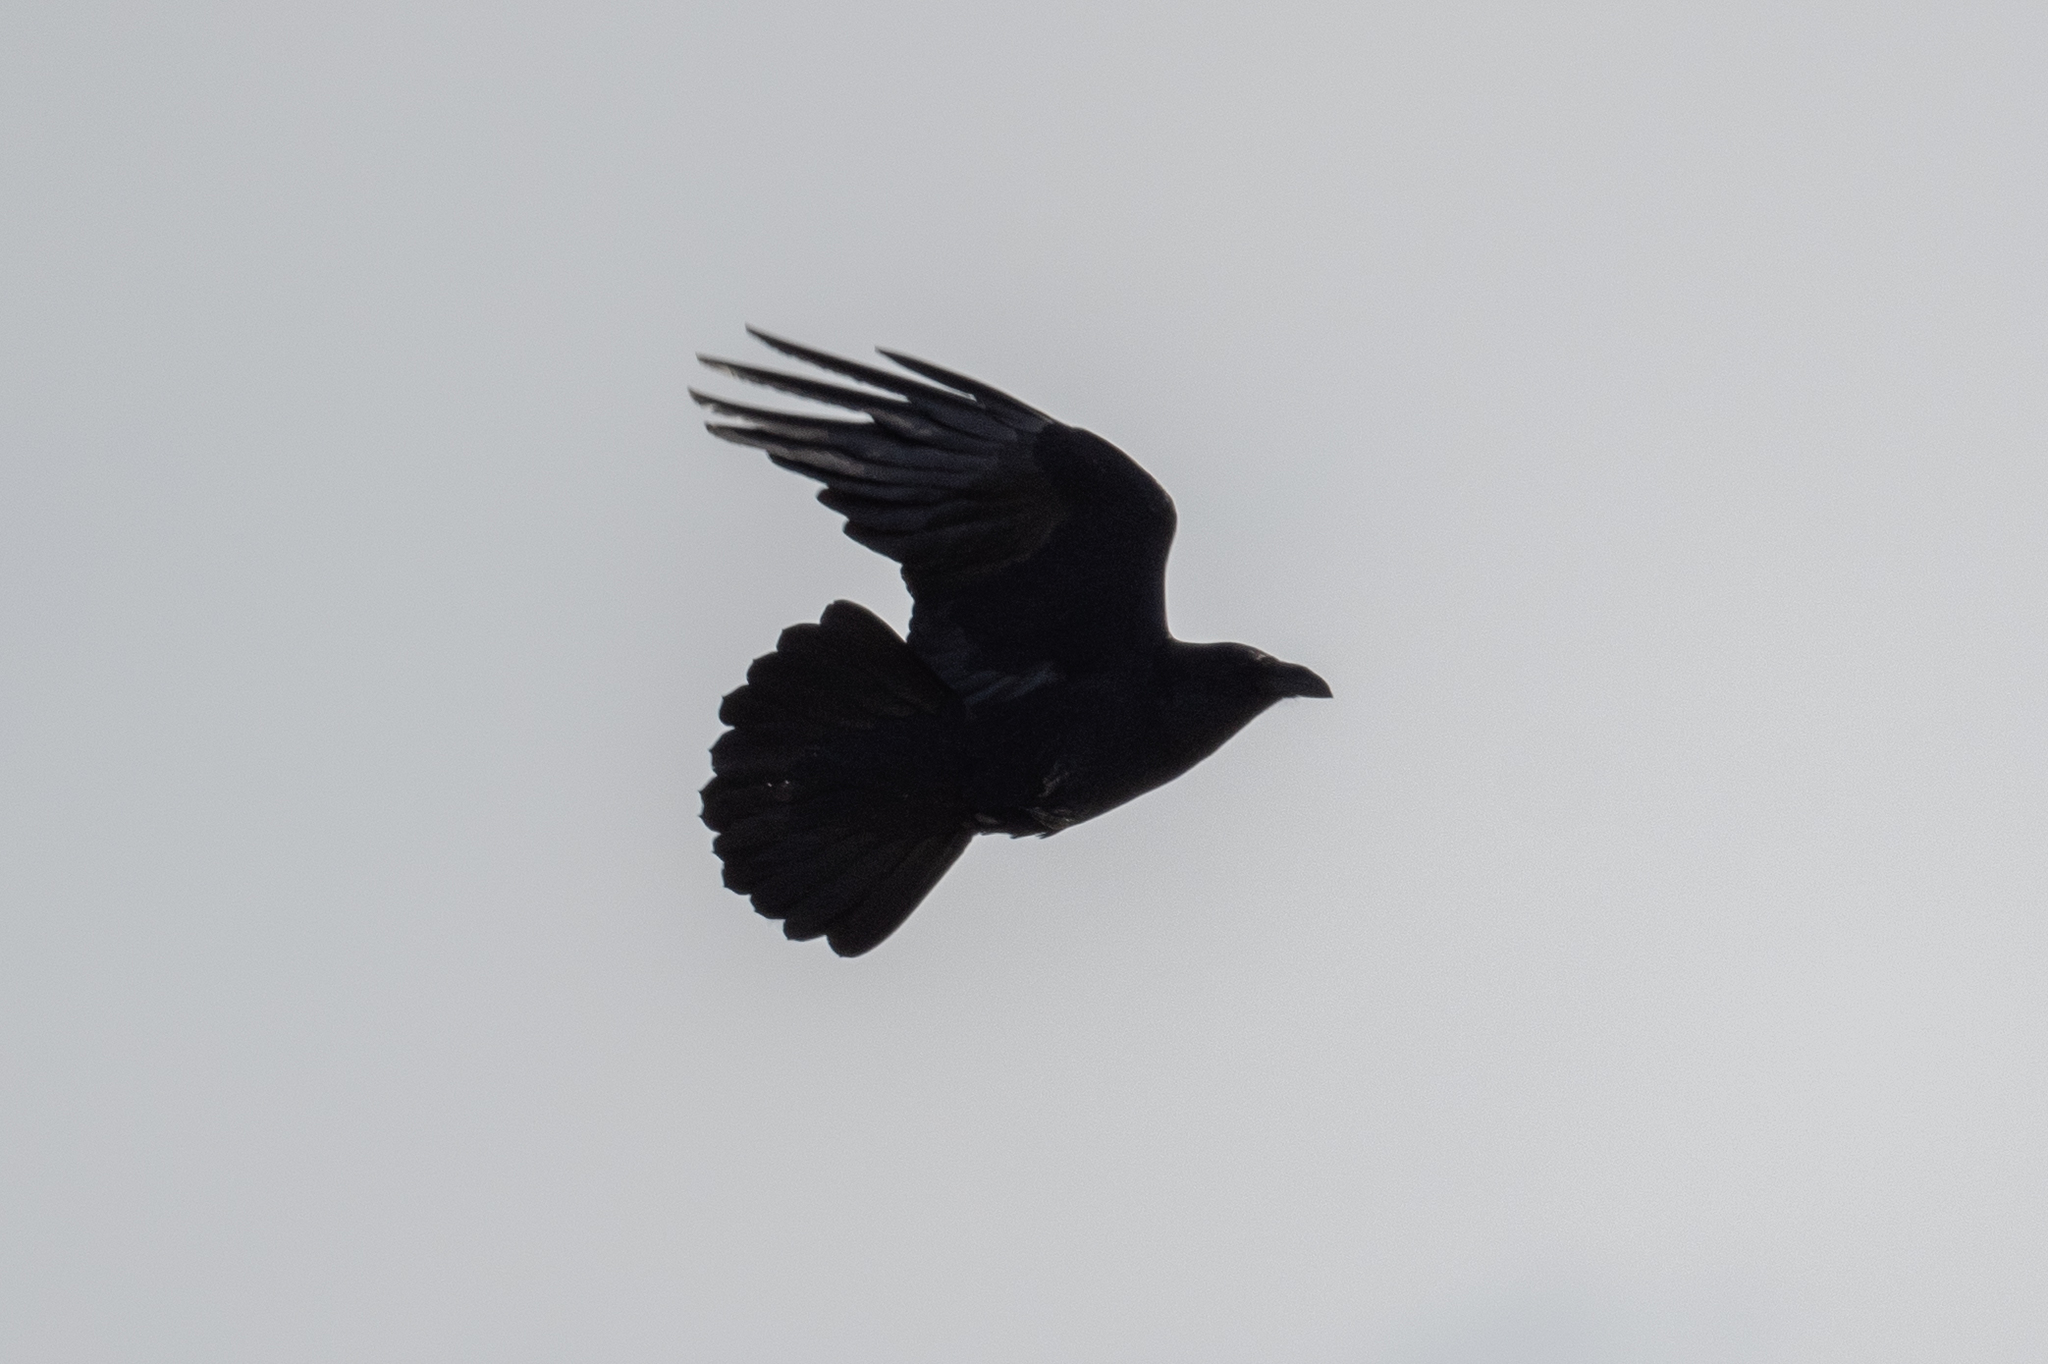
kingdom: Animalia
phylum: Chordata
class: Aves
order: Passeriformes
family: Corvidae
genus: Corvus
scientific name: Corvus corax
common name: Common raven
